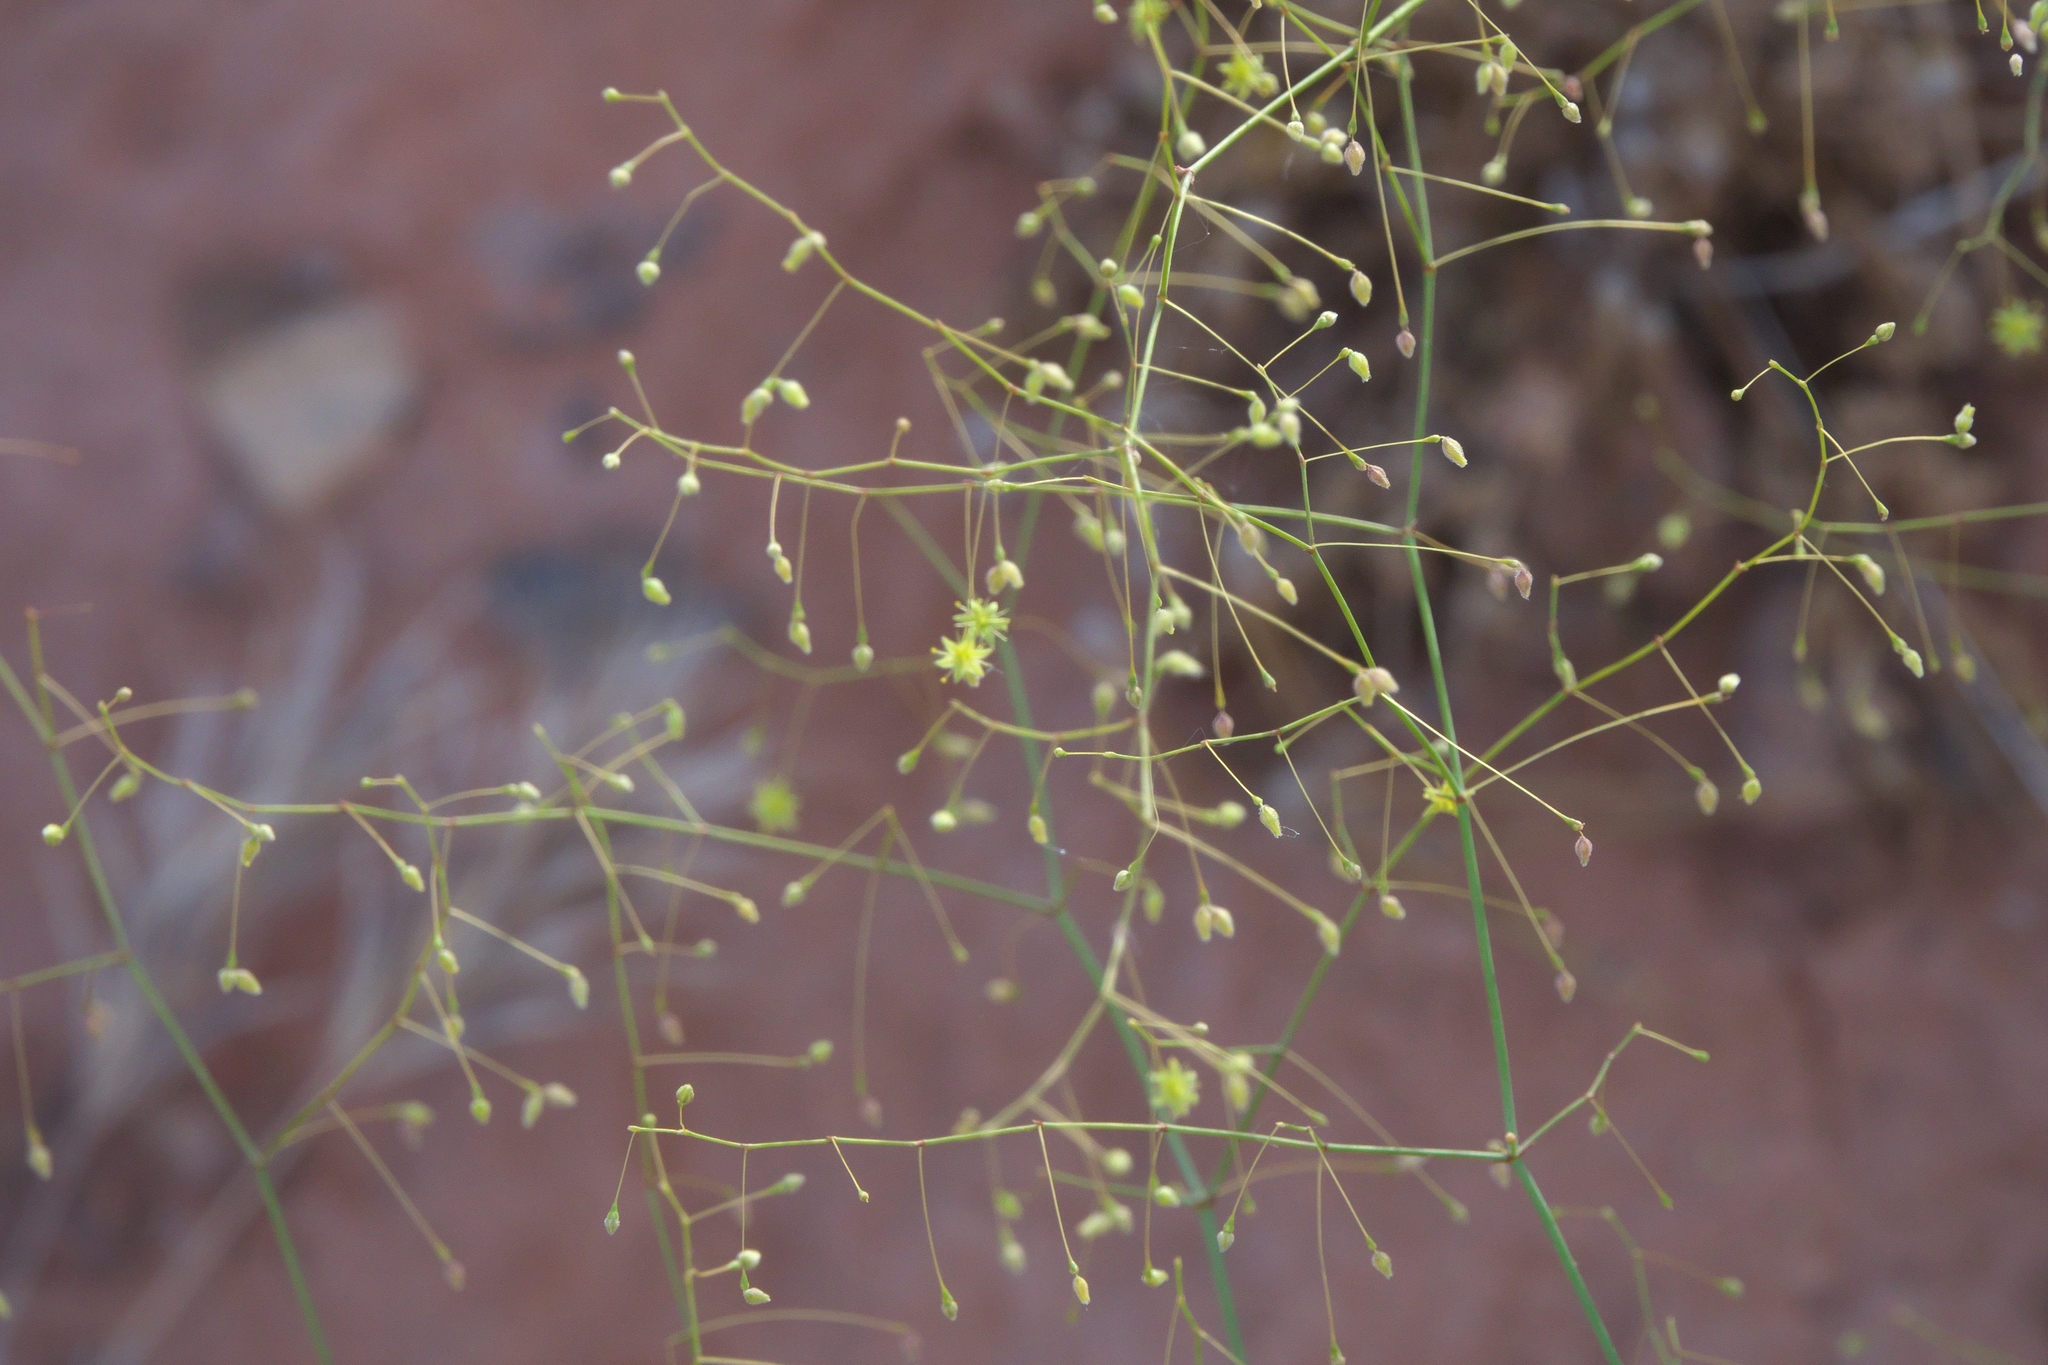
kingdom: Plantae
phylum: Tracheophyta
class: Magnoliopsida
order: Caryophyllales
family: Polygonaceae
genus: Eriogonum
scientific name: Eriogonum trichopes
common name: Little desert trumpet
